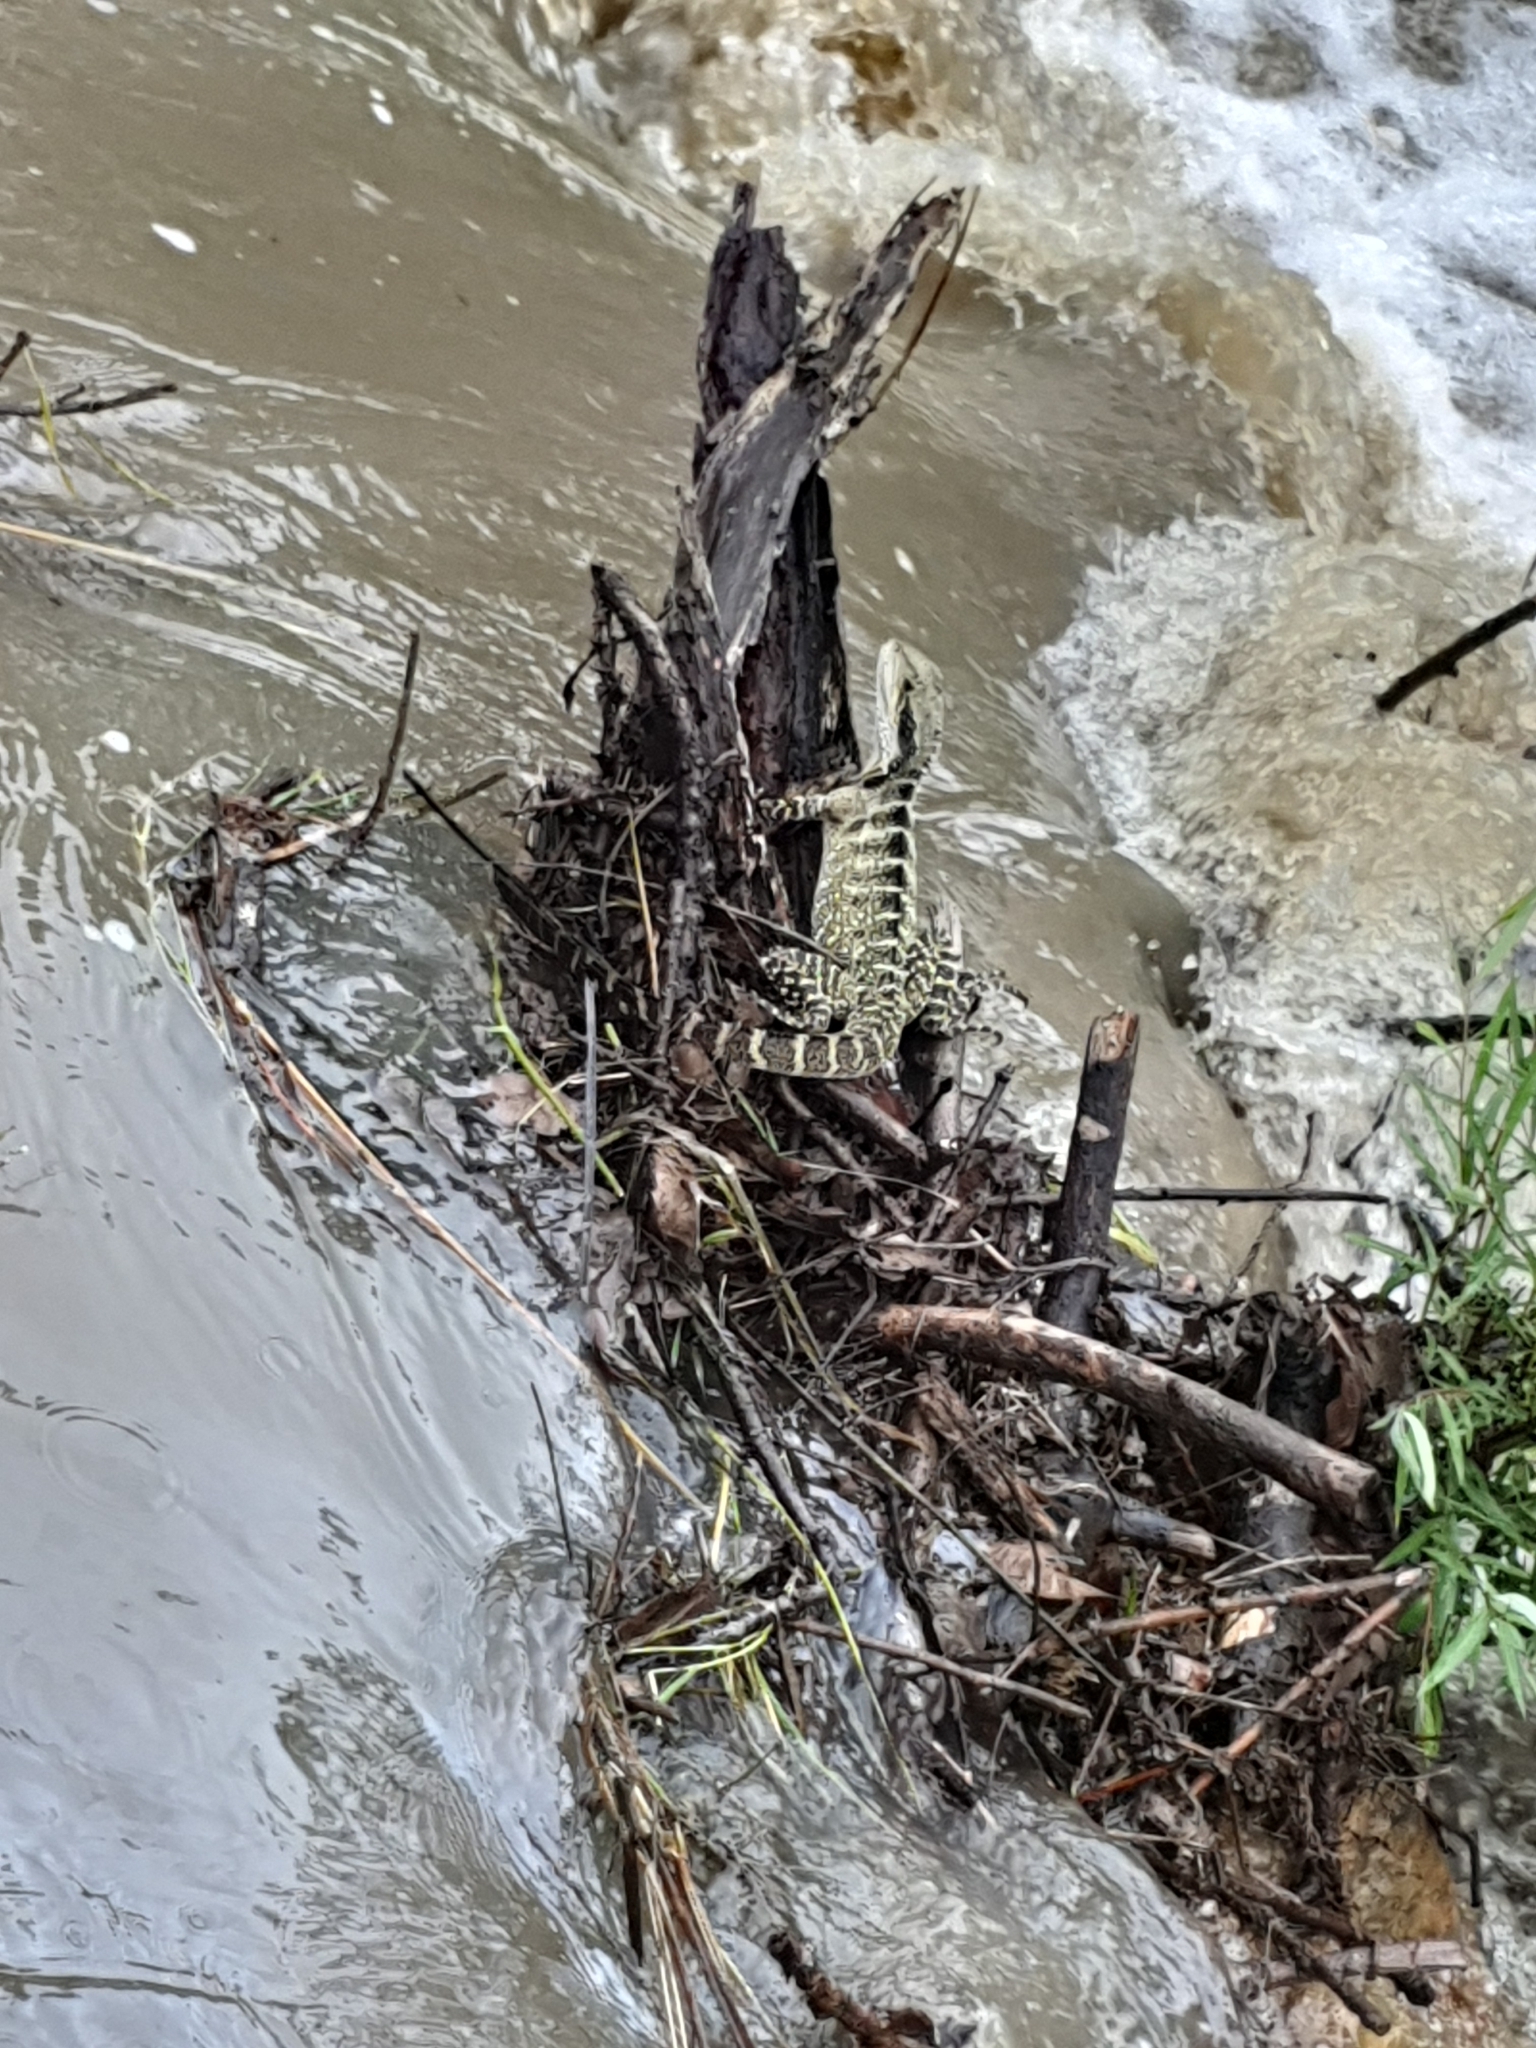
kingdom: Animalia
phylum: Chordata
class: Squamata
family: Agamidae
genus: Intellagama
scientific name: Intellagama lesueurii
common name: Eastern water dragon
